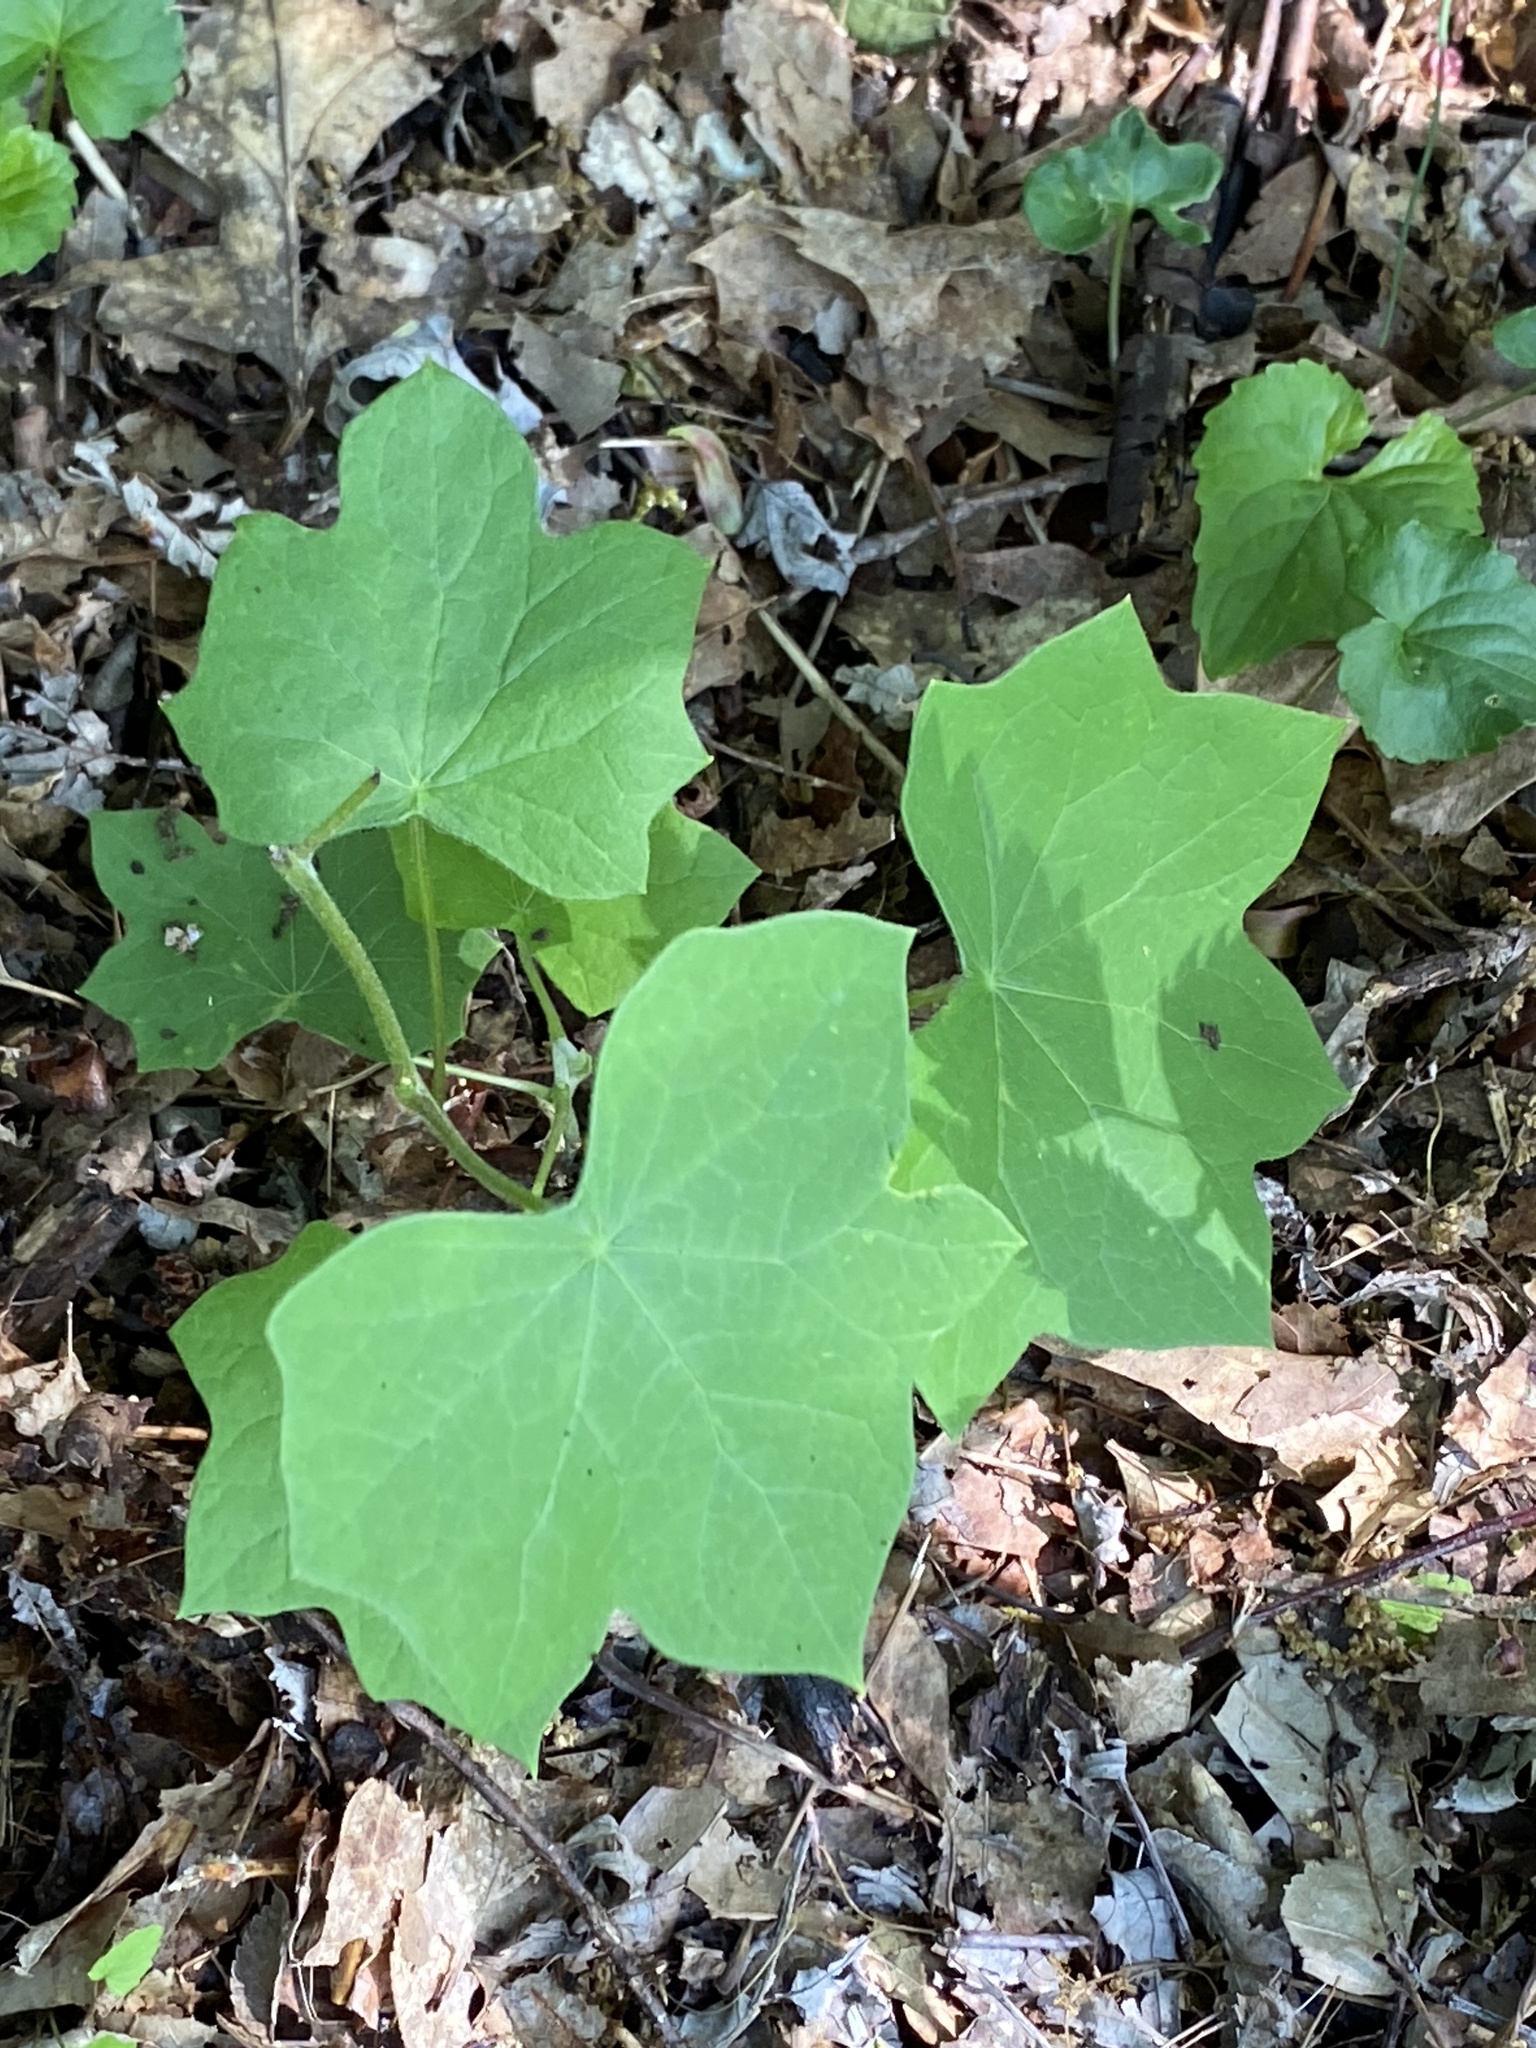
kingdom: Plantae
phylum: Tracheophyta
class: Magnoliopsida
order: Ranunculales
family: Menispermaceae
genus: Menispermum
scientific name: Menispermum canadense
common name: Moonseed
